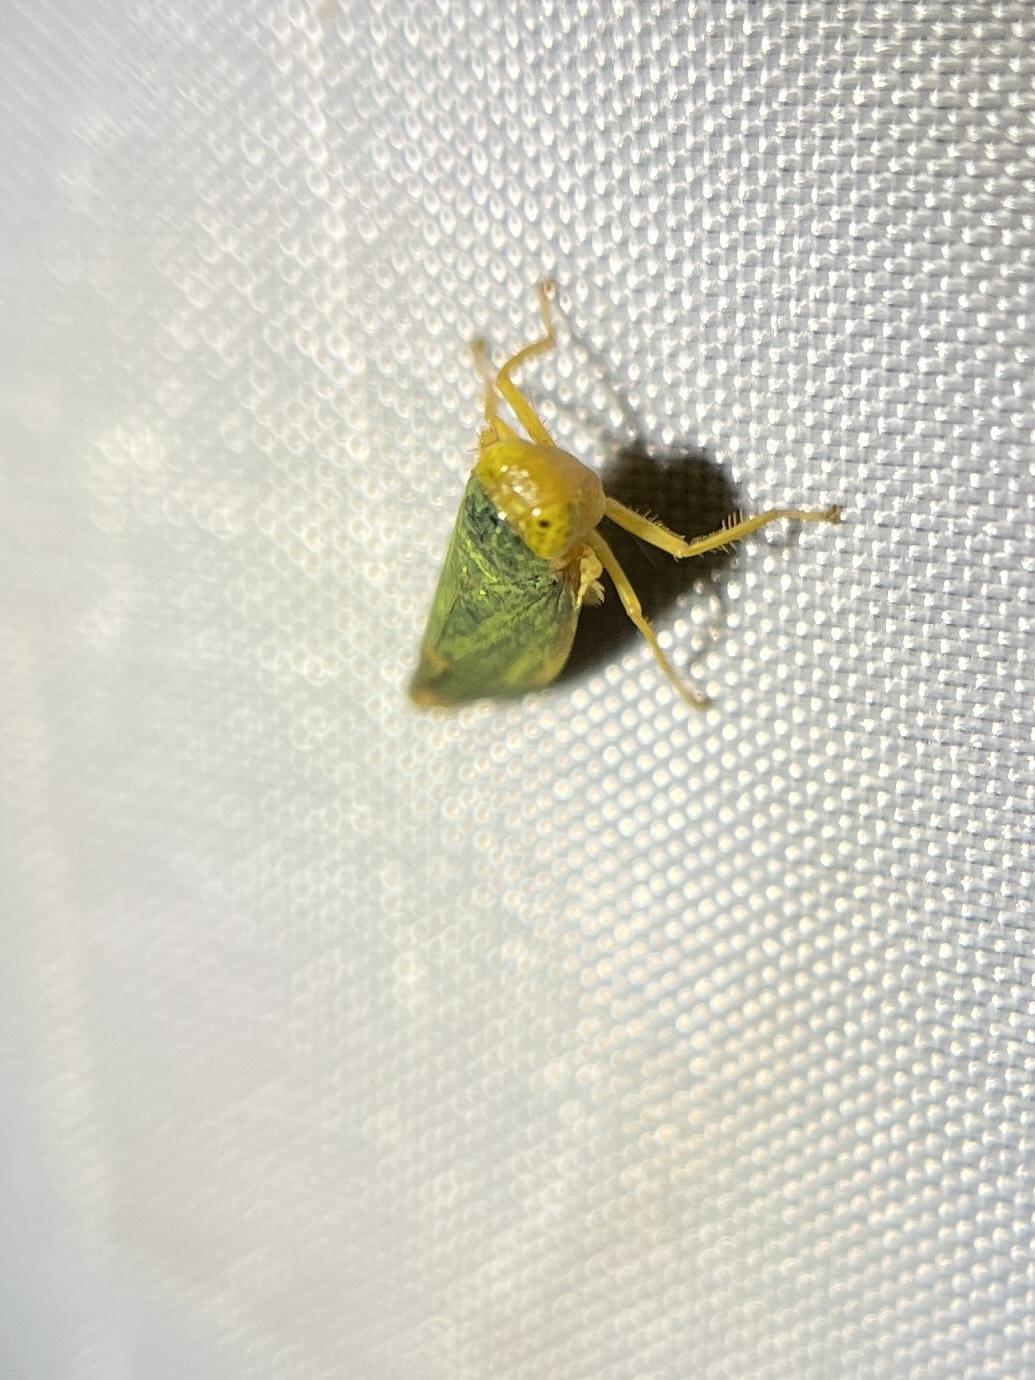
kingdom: Animalia
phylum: Arthropoda
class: Insecta
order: Hemiptera
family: Cicadellidae
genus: Jikradia
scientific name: Jikradia melanotus
